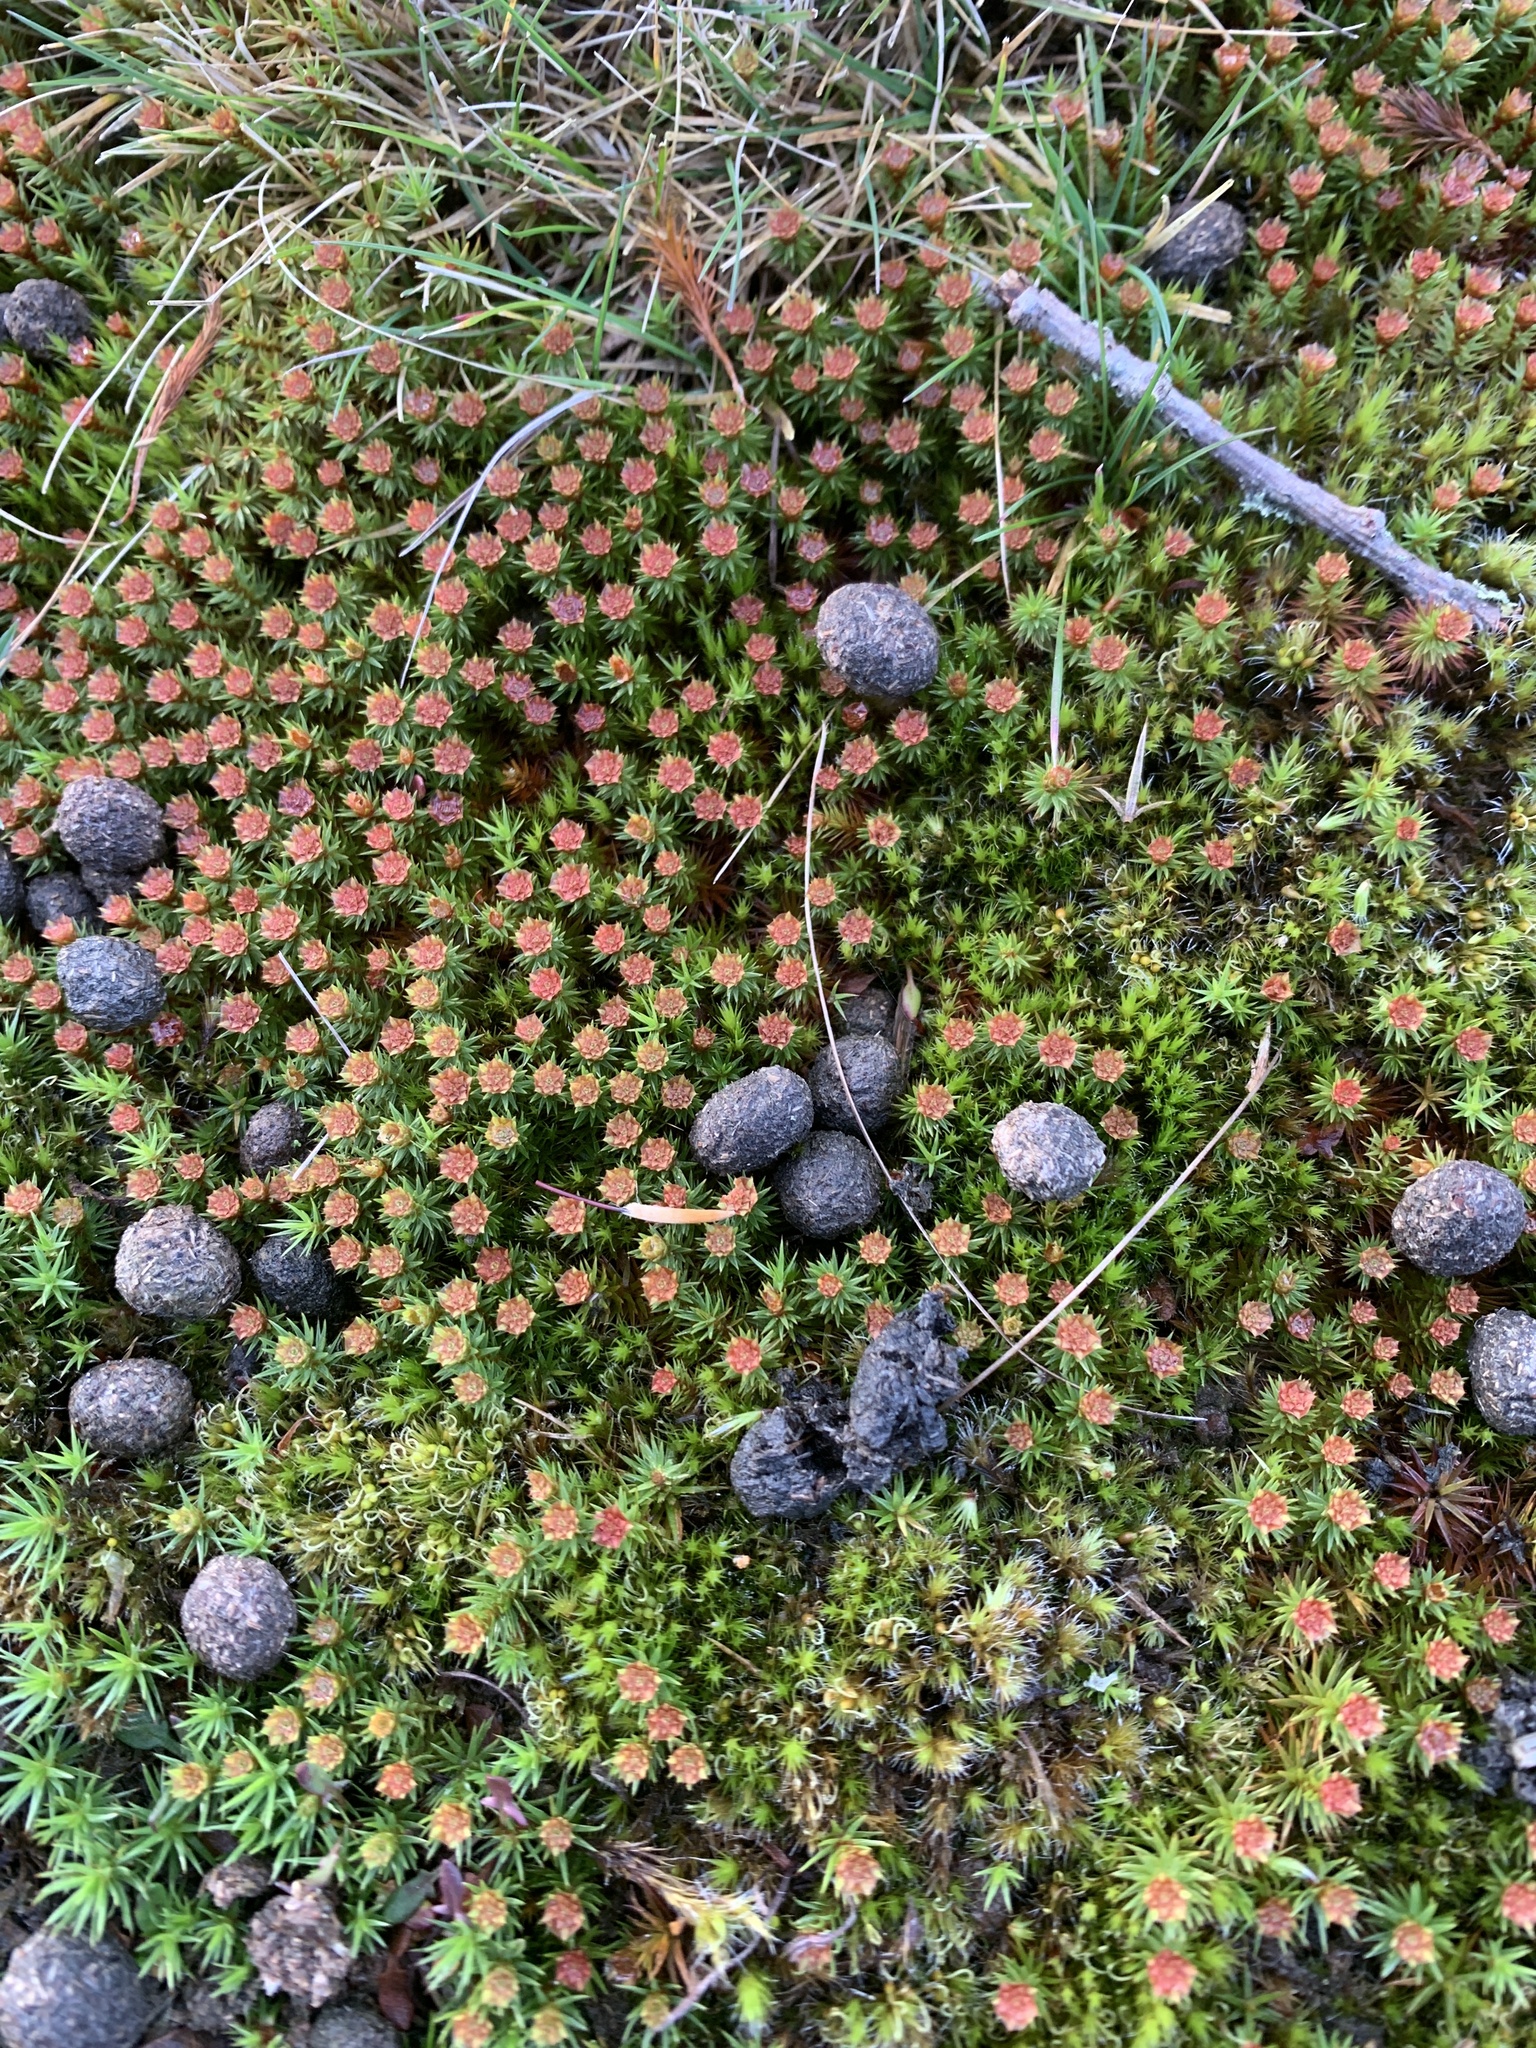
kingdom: Plantae
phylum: Bryophyta
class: Polytrichopsida
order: Polytrichales
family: Polytrichaceae
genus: Polytrichum
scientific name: Polytrichum juniperinum
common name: Juniper haircap moss
